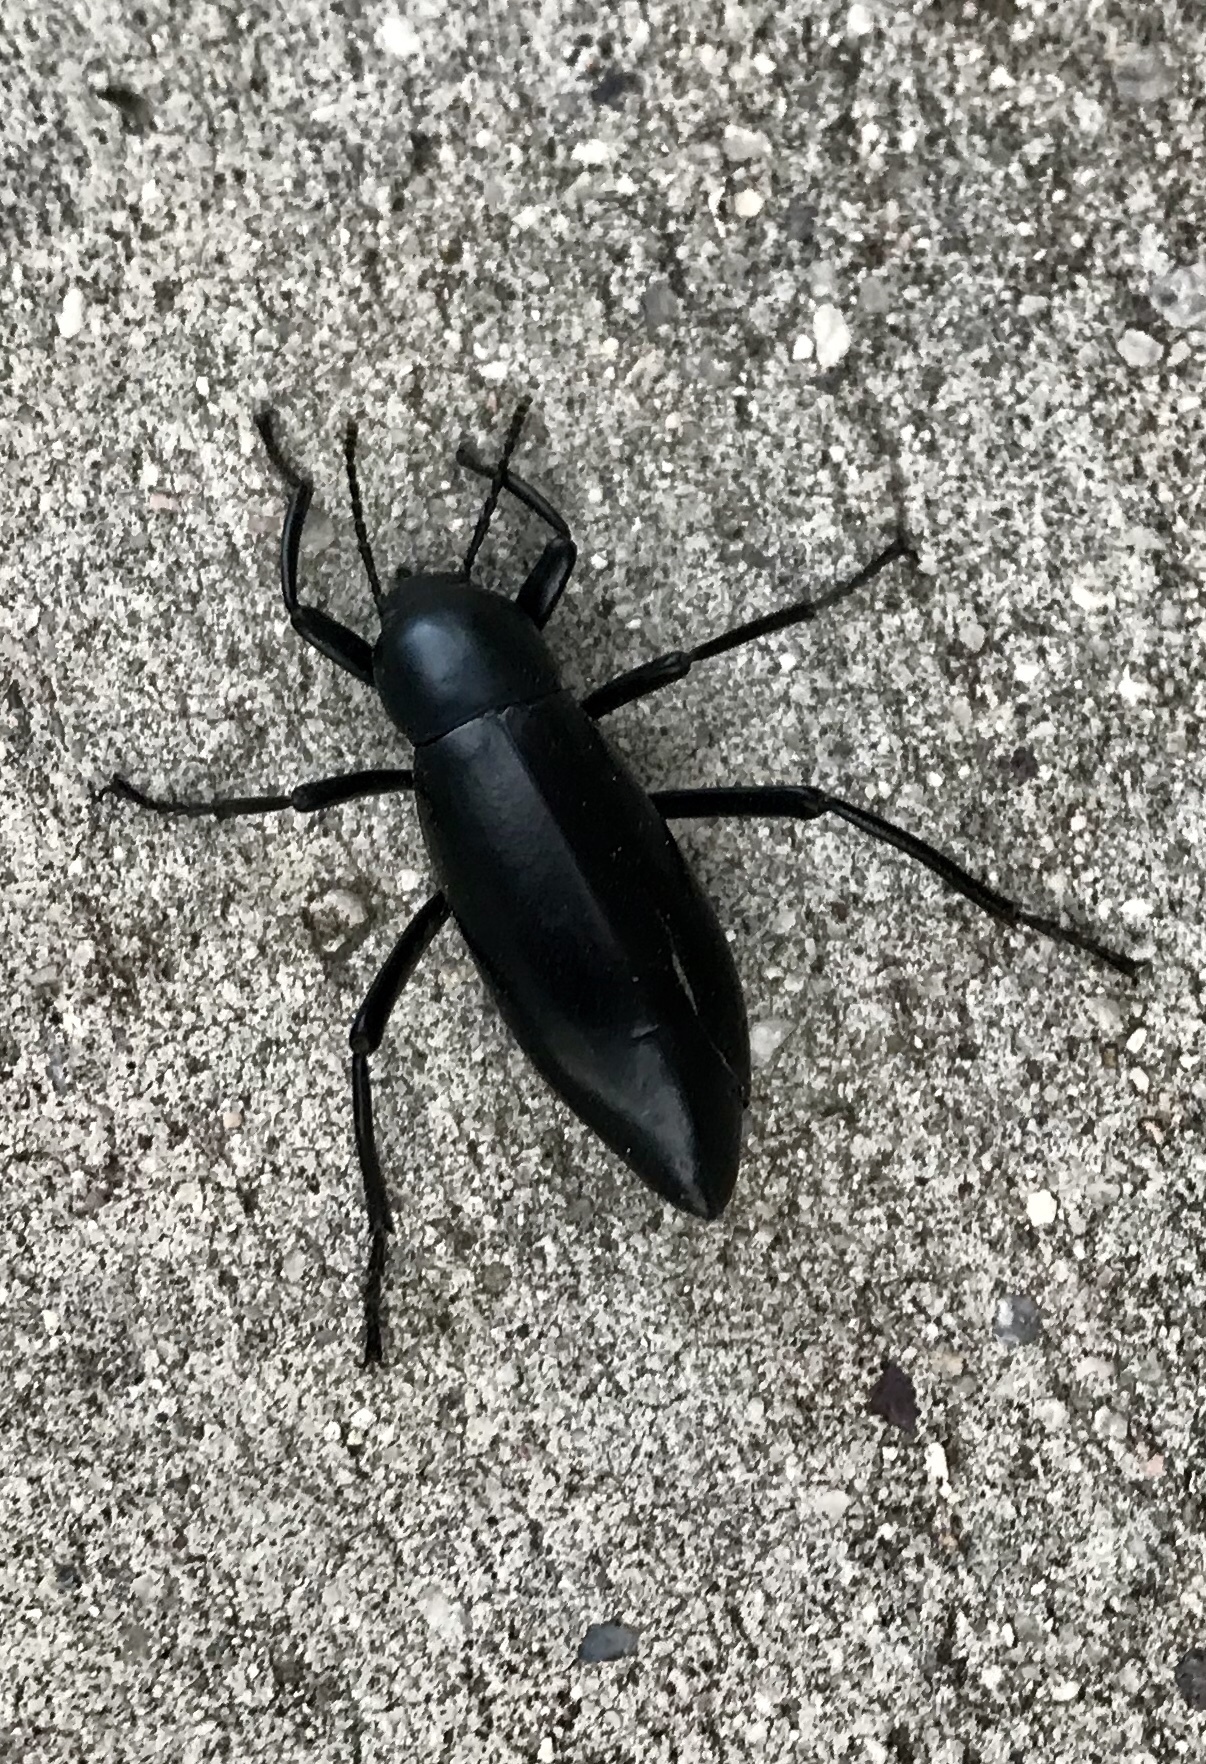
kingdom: Animalia
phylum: Arthropoda
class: Insecta
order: Coleoptera
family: Tenebrionidae
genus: Eleodes
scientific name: Eleodes longicollis
